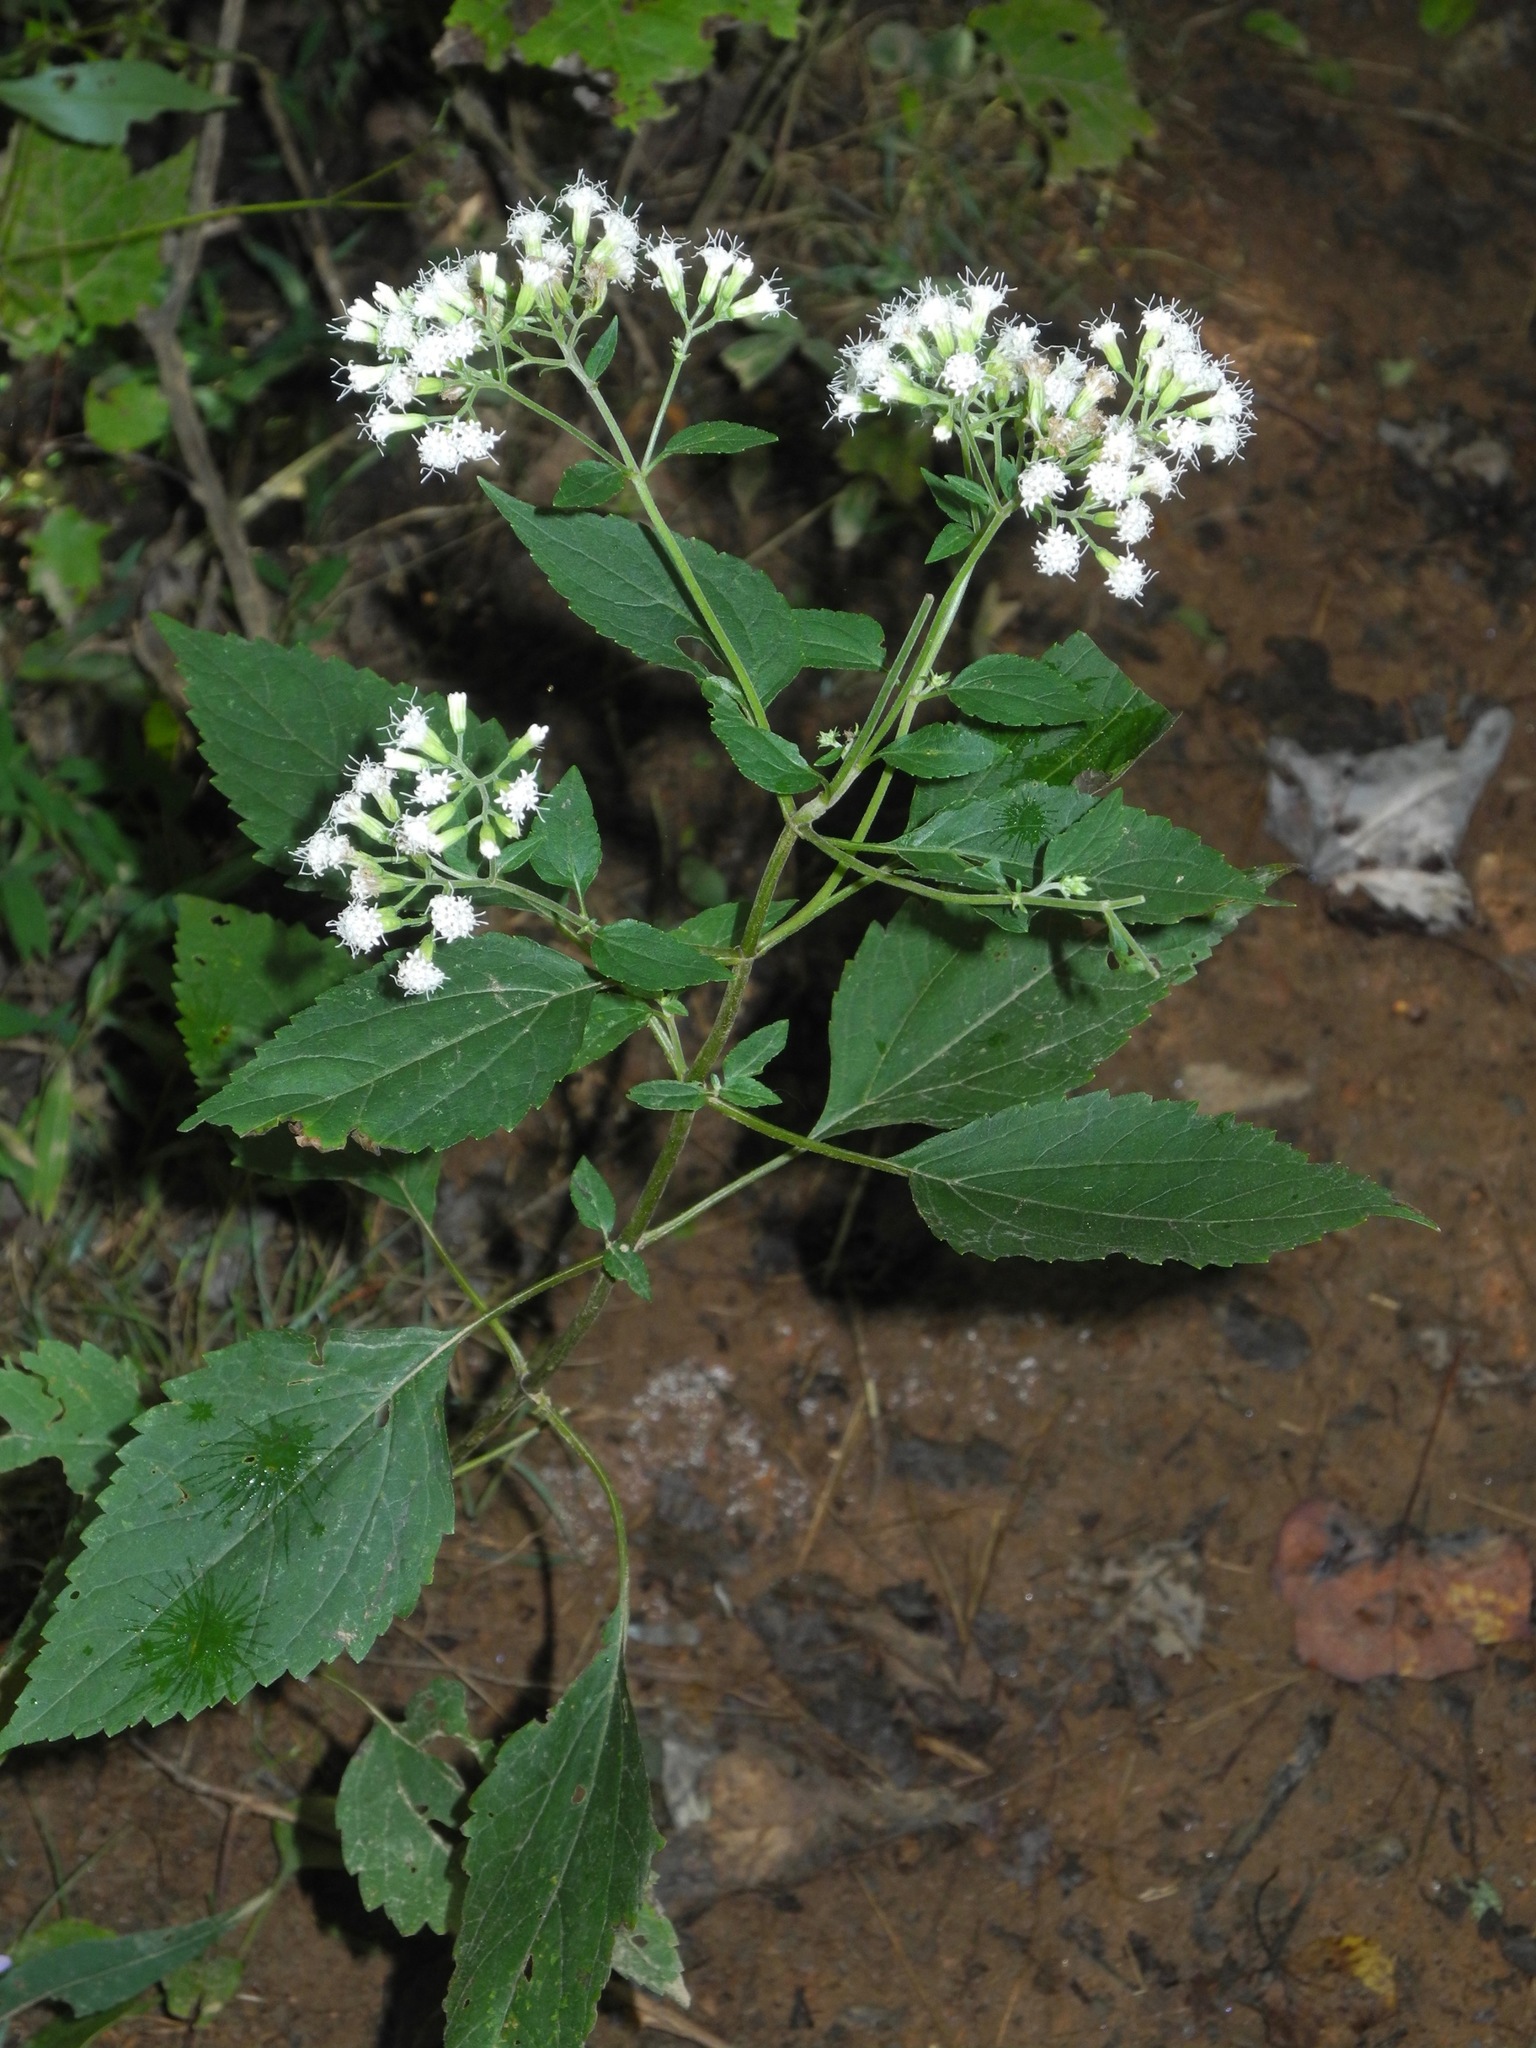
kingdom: Plantae
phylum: Tracheophyta
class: Magnoliopsida
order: Asterales
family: Asteraceae
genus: Ageratina
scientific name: Ageratina altissima
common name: White snakeroot
